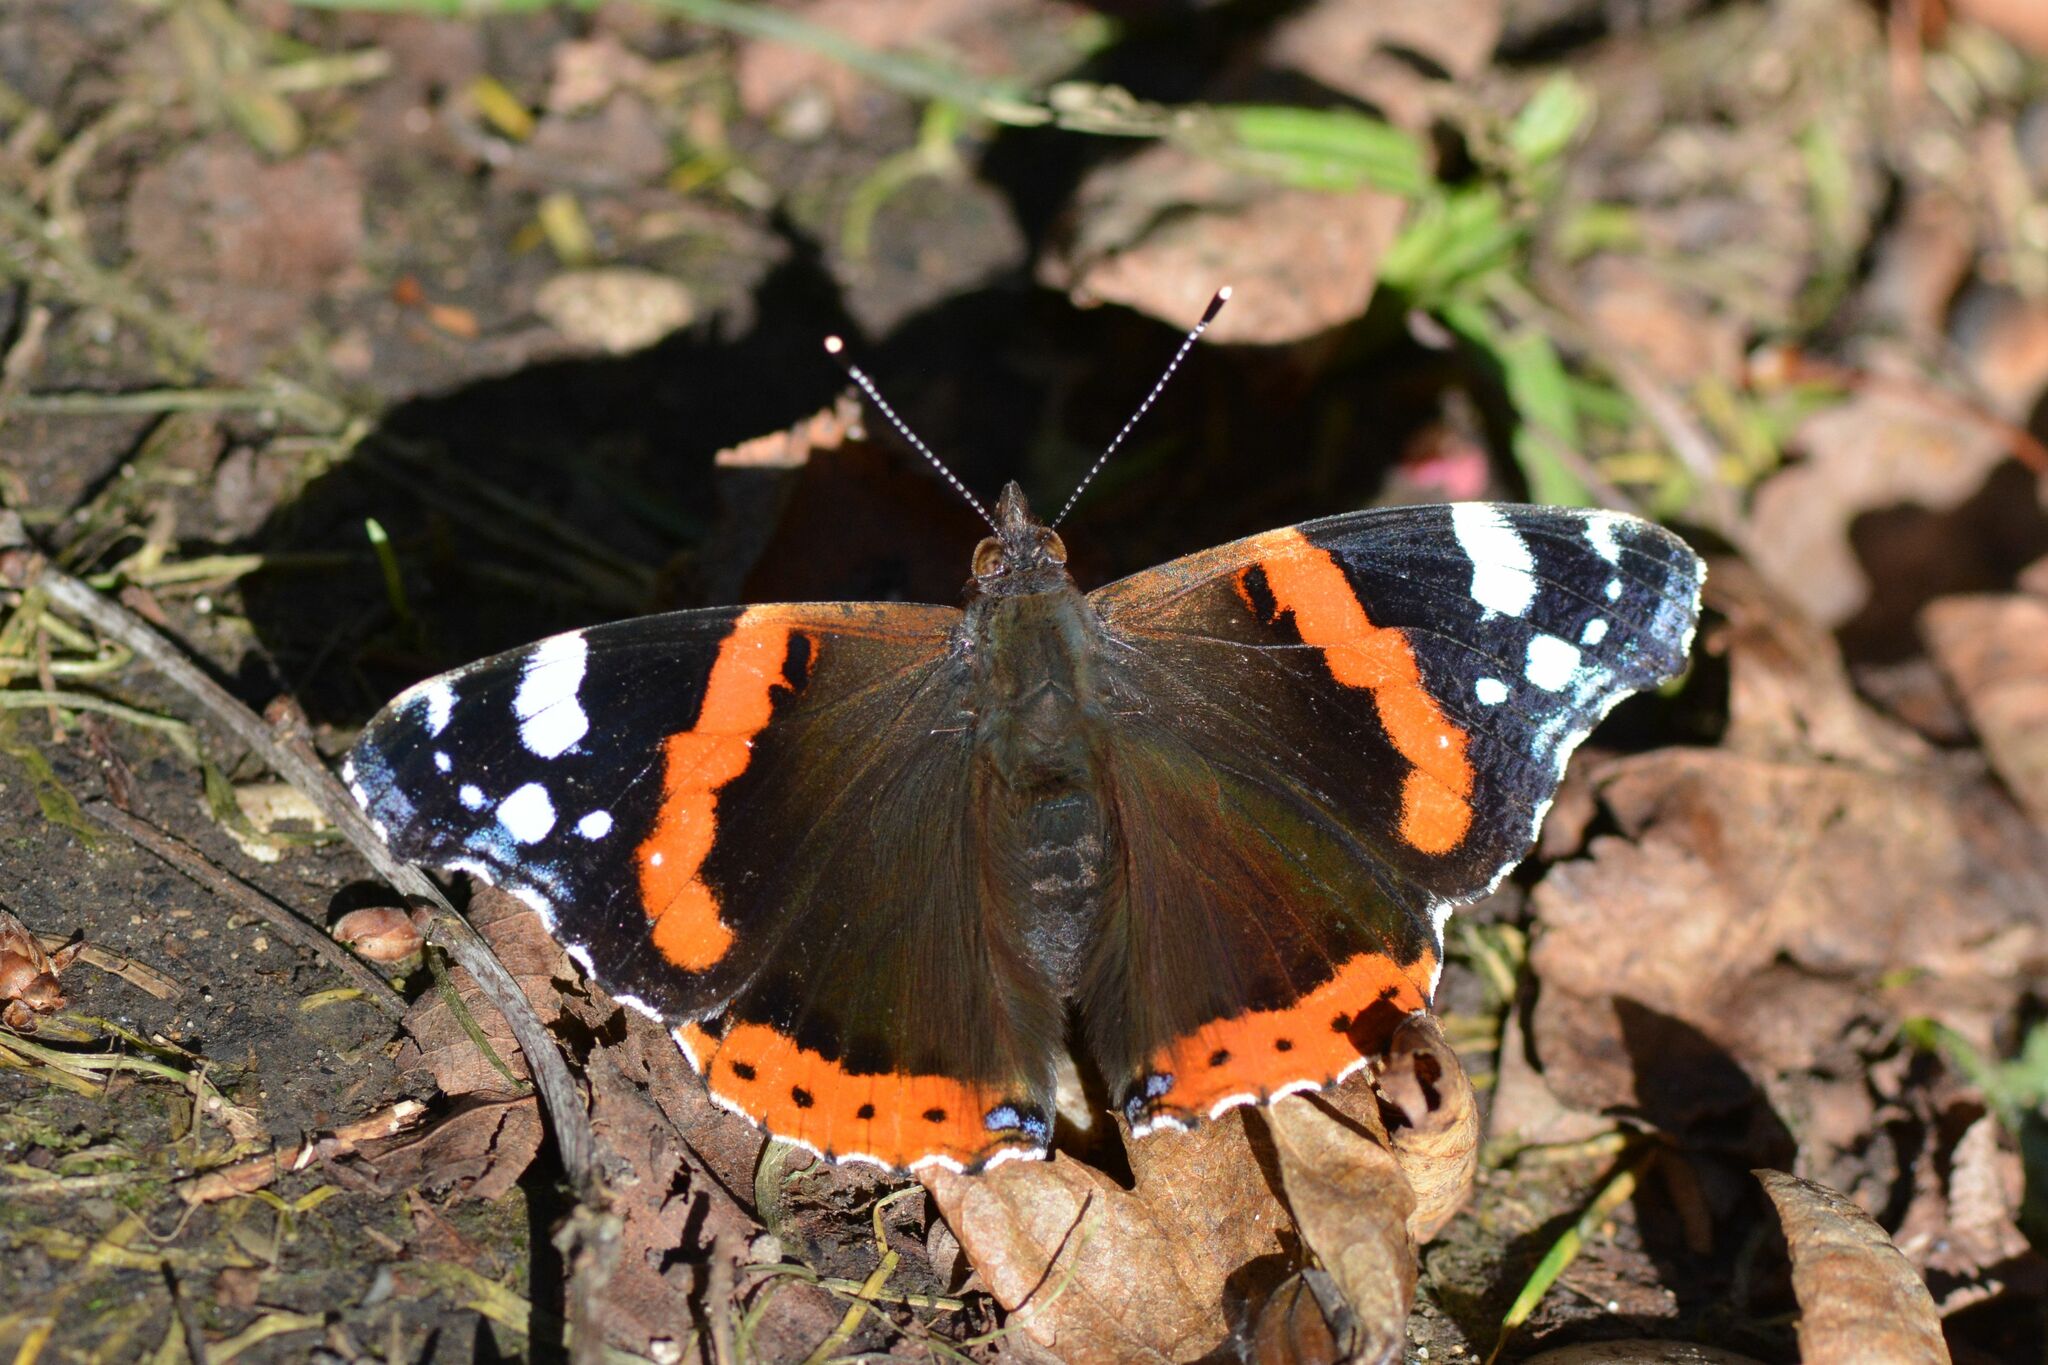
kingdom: Animalia
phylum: Arthropoda
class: Insecta
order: Lepidoptera
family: Nymphalidae
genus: Vanessa
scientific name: Vanessa atalanta
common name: Red admiral
